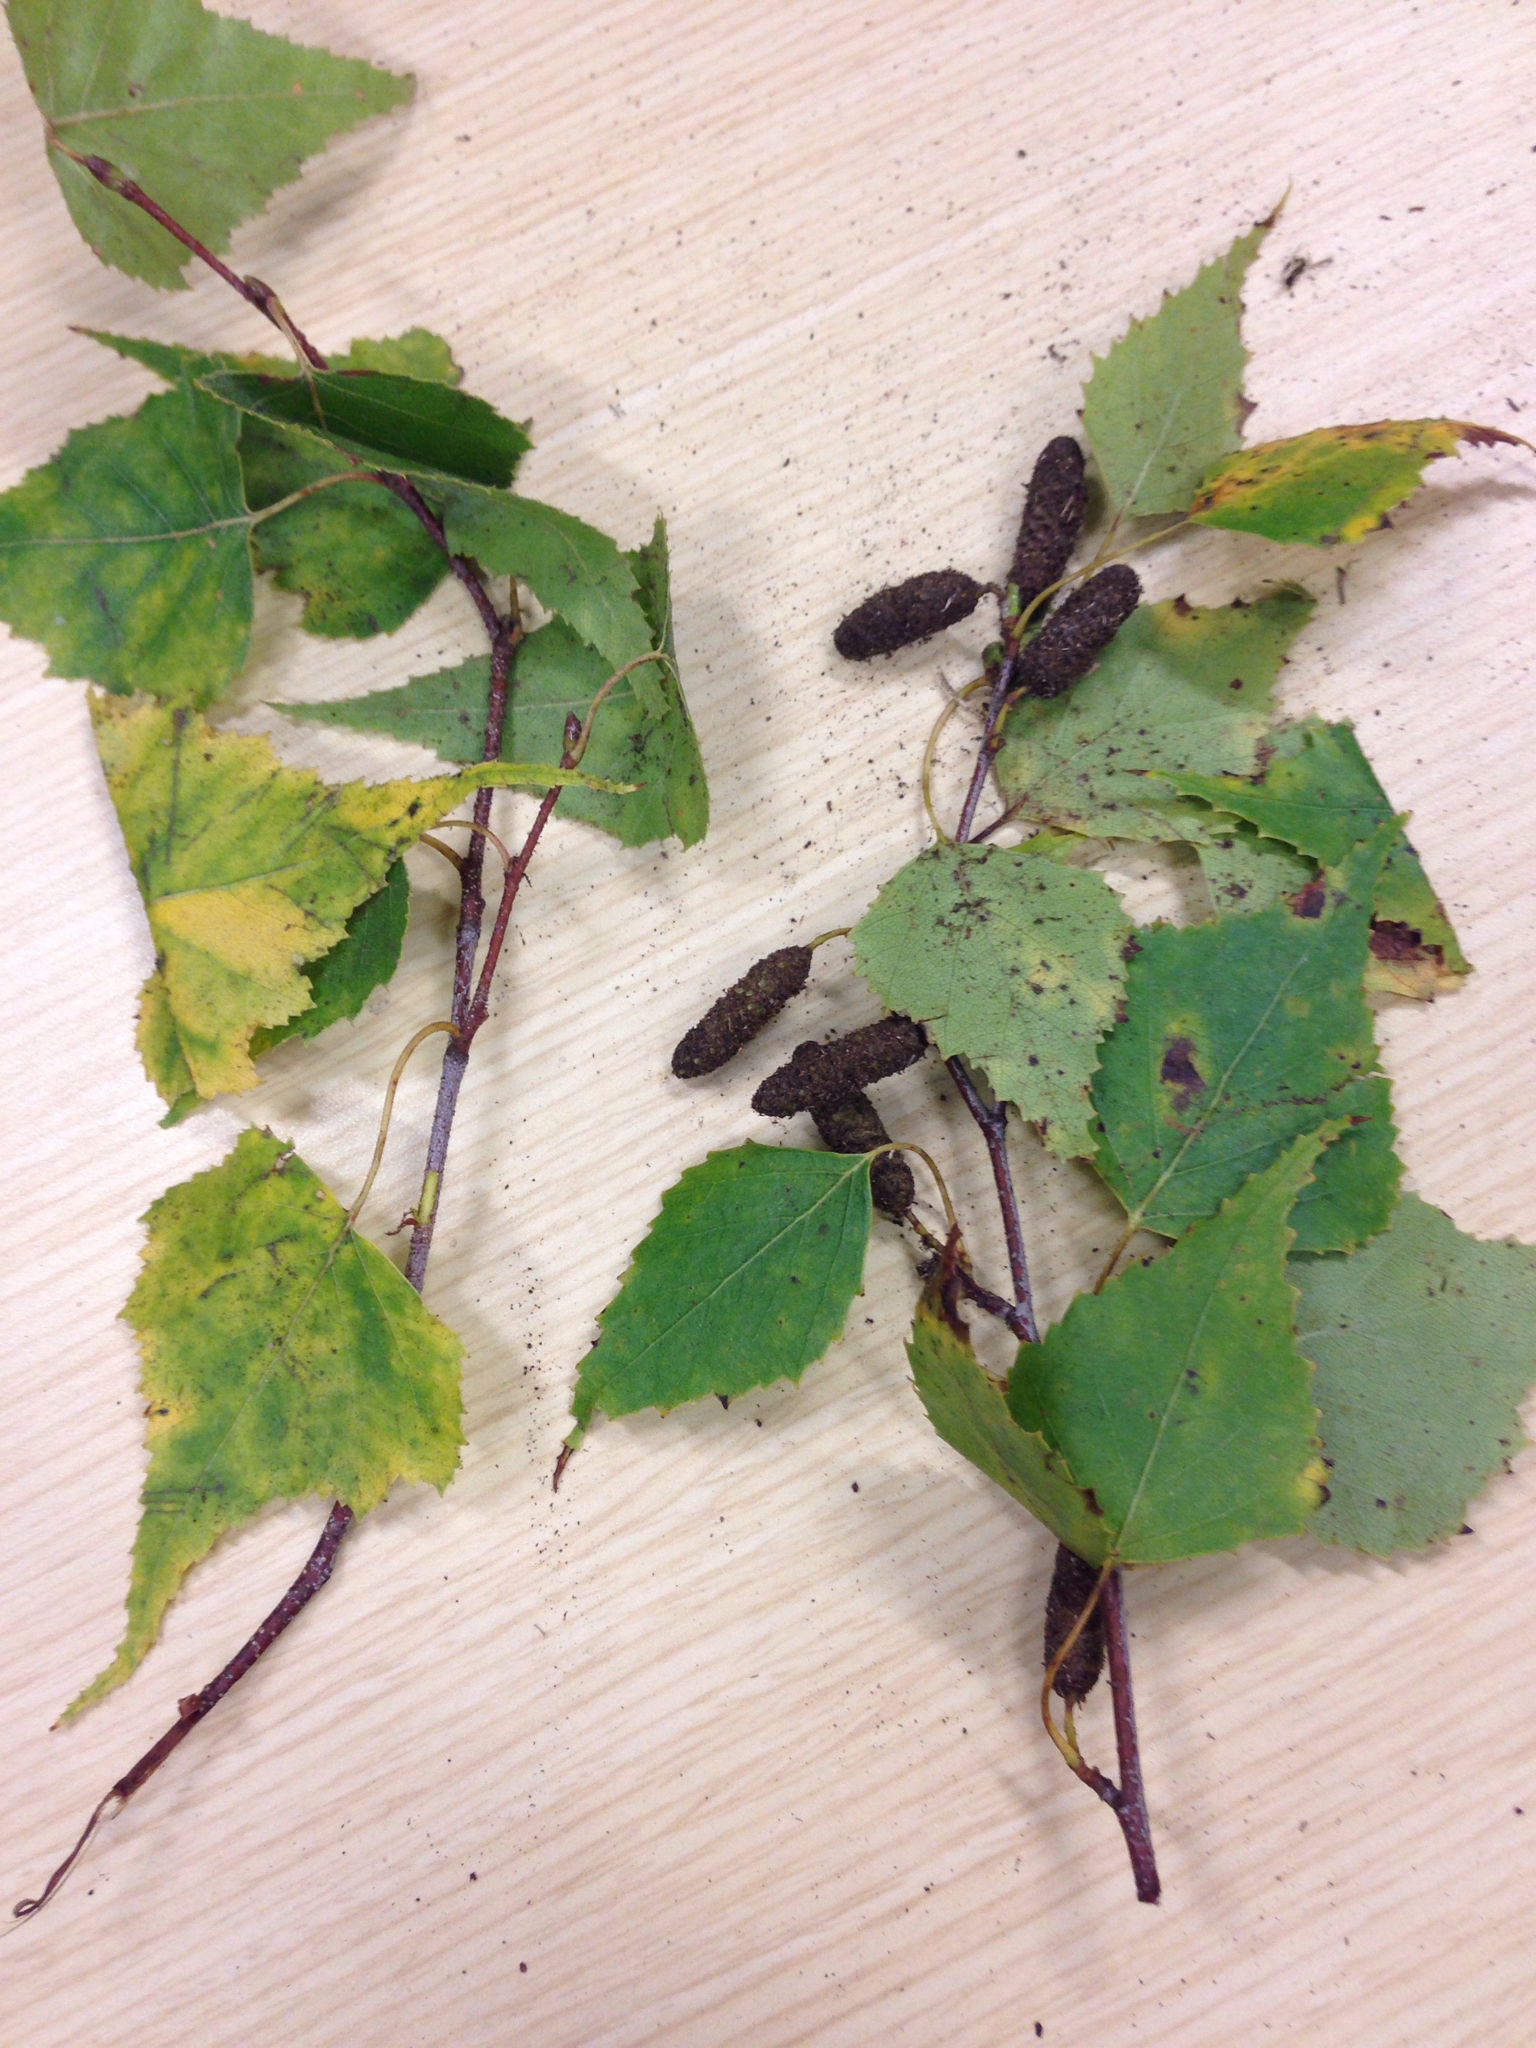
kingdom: Plantae
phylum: Tracheophyta
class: Magnoliopsida
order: Fagales
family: Betulaceae
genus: Betula
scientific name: Betula populifolia
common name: Fire birch
